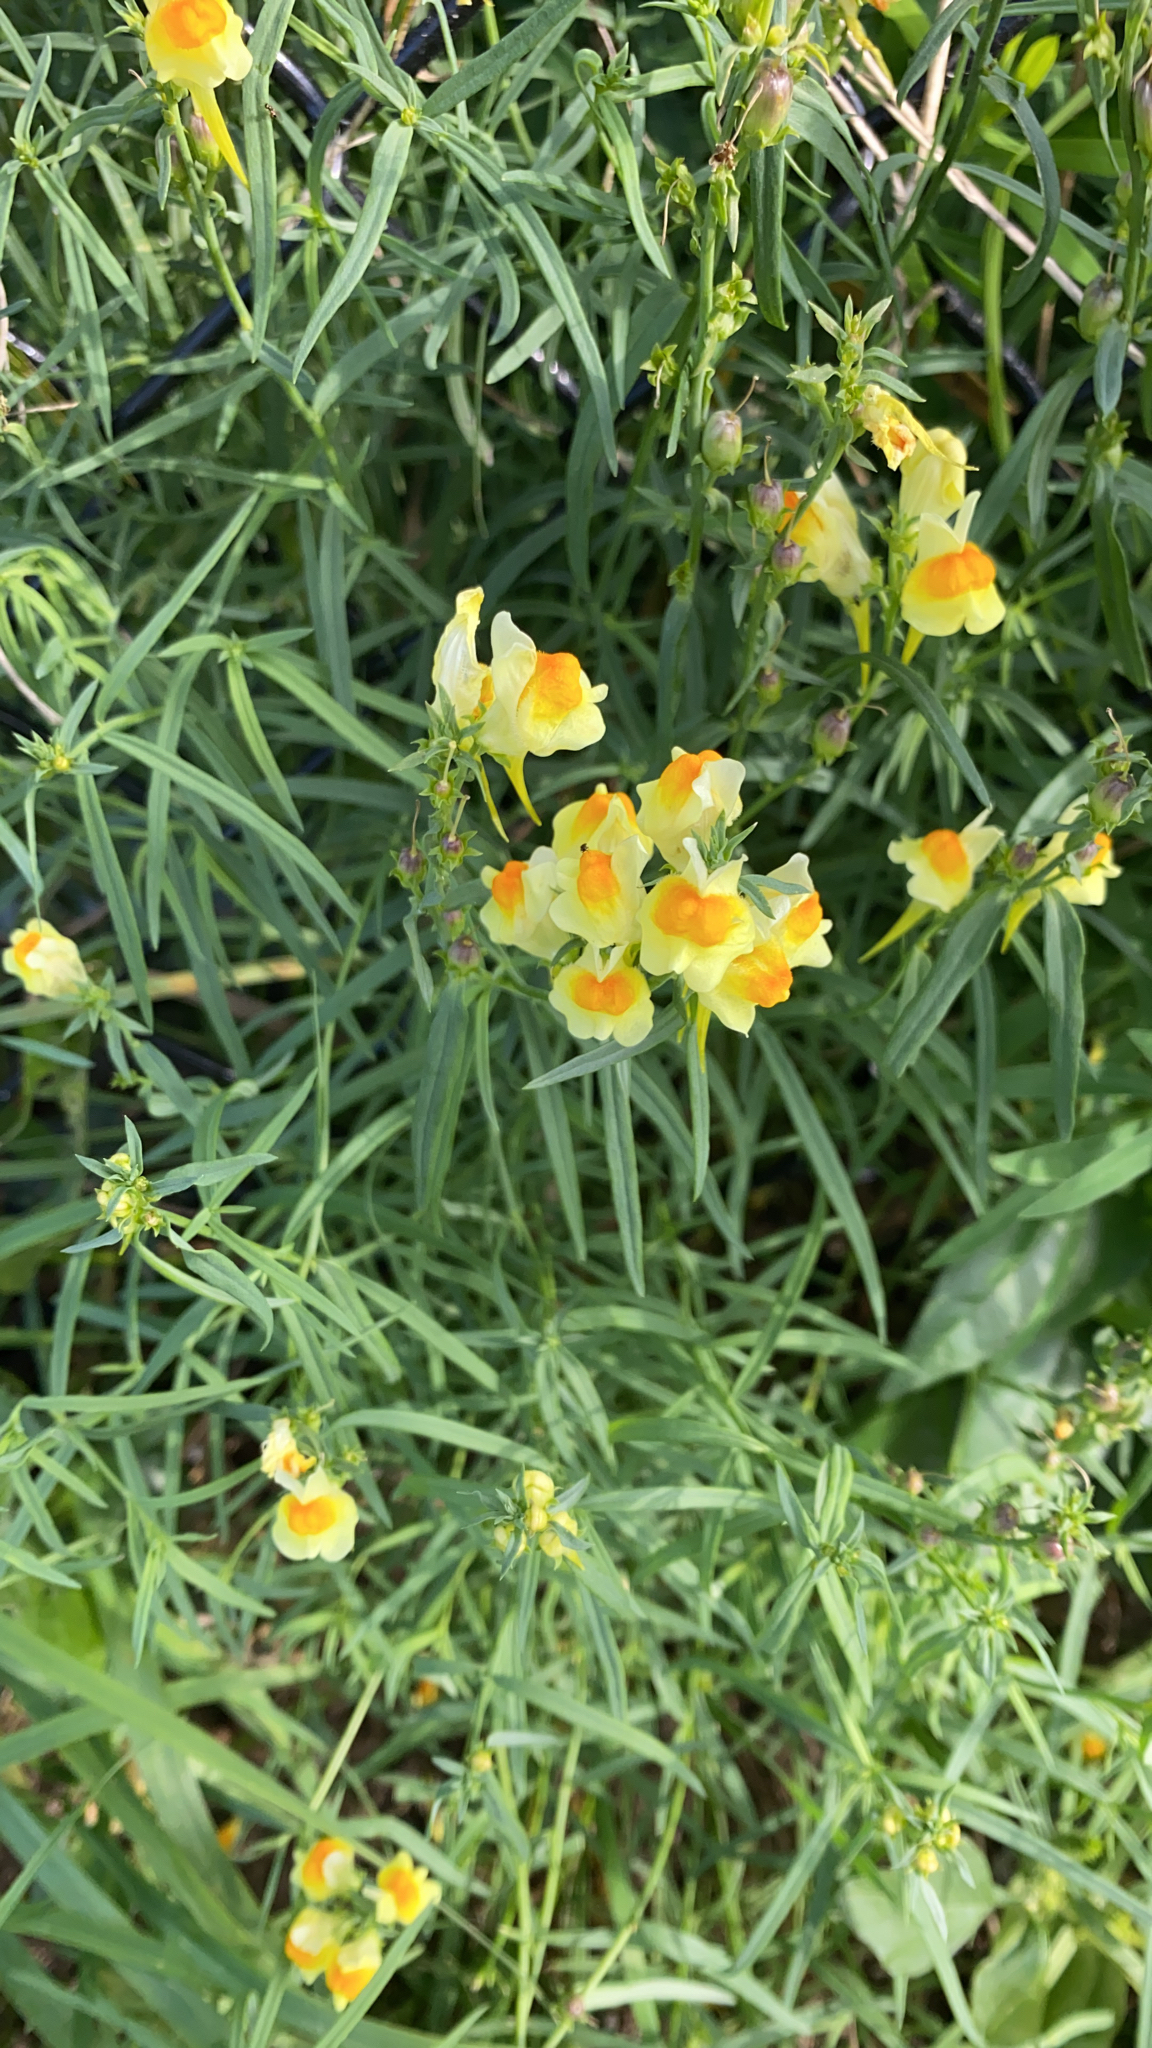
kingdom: Plantae
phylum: Tracheophyta
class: Magnoliopsida
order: Lamiales
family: Plantaginaceae
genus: Linaria
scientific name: Linaria vulgaris
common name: Butter and eggs
